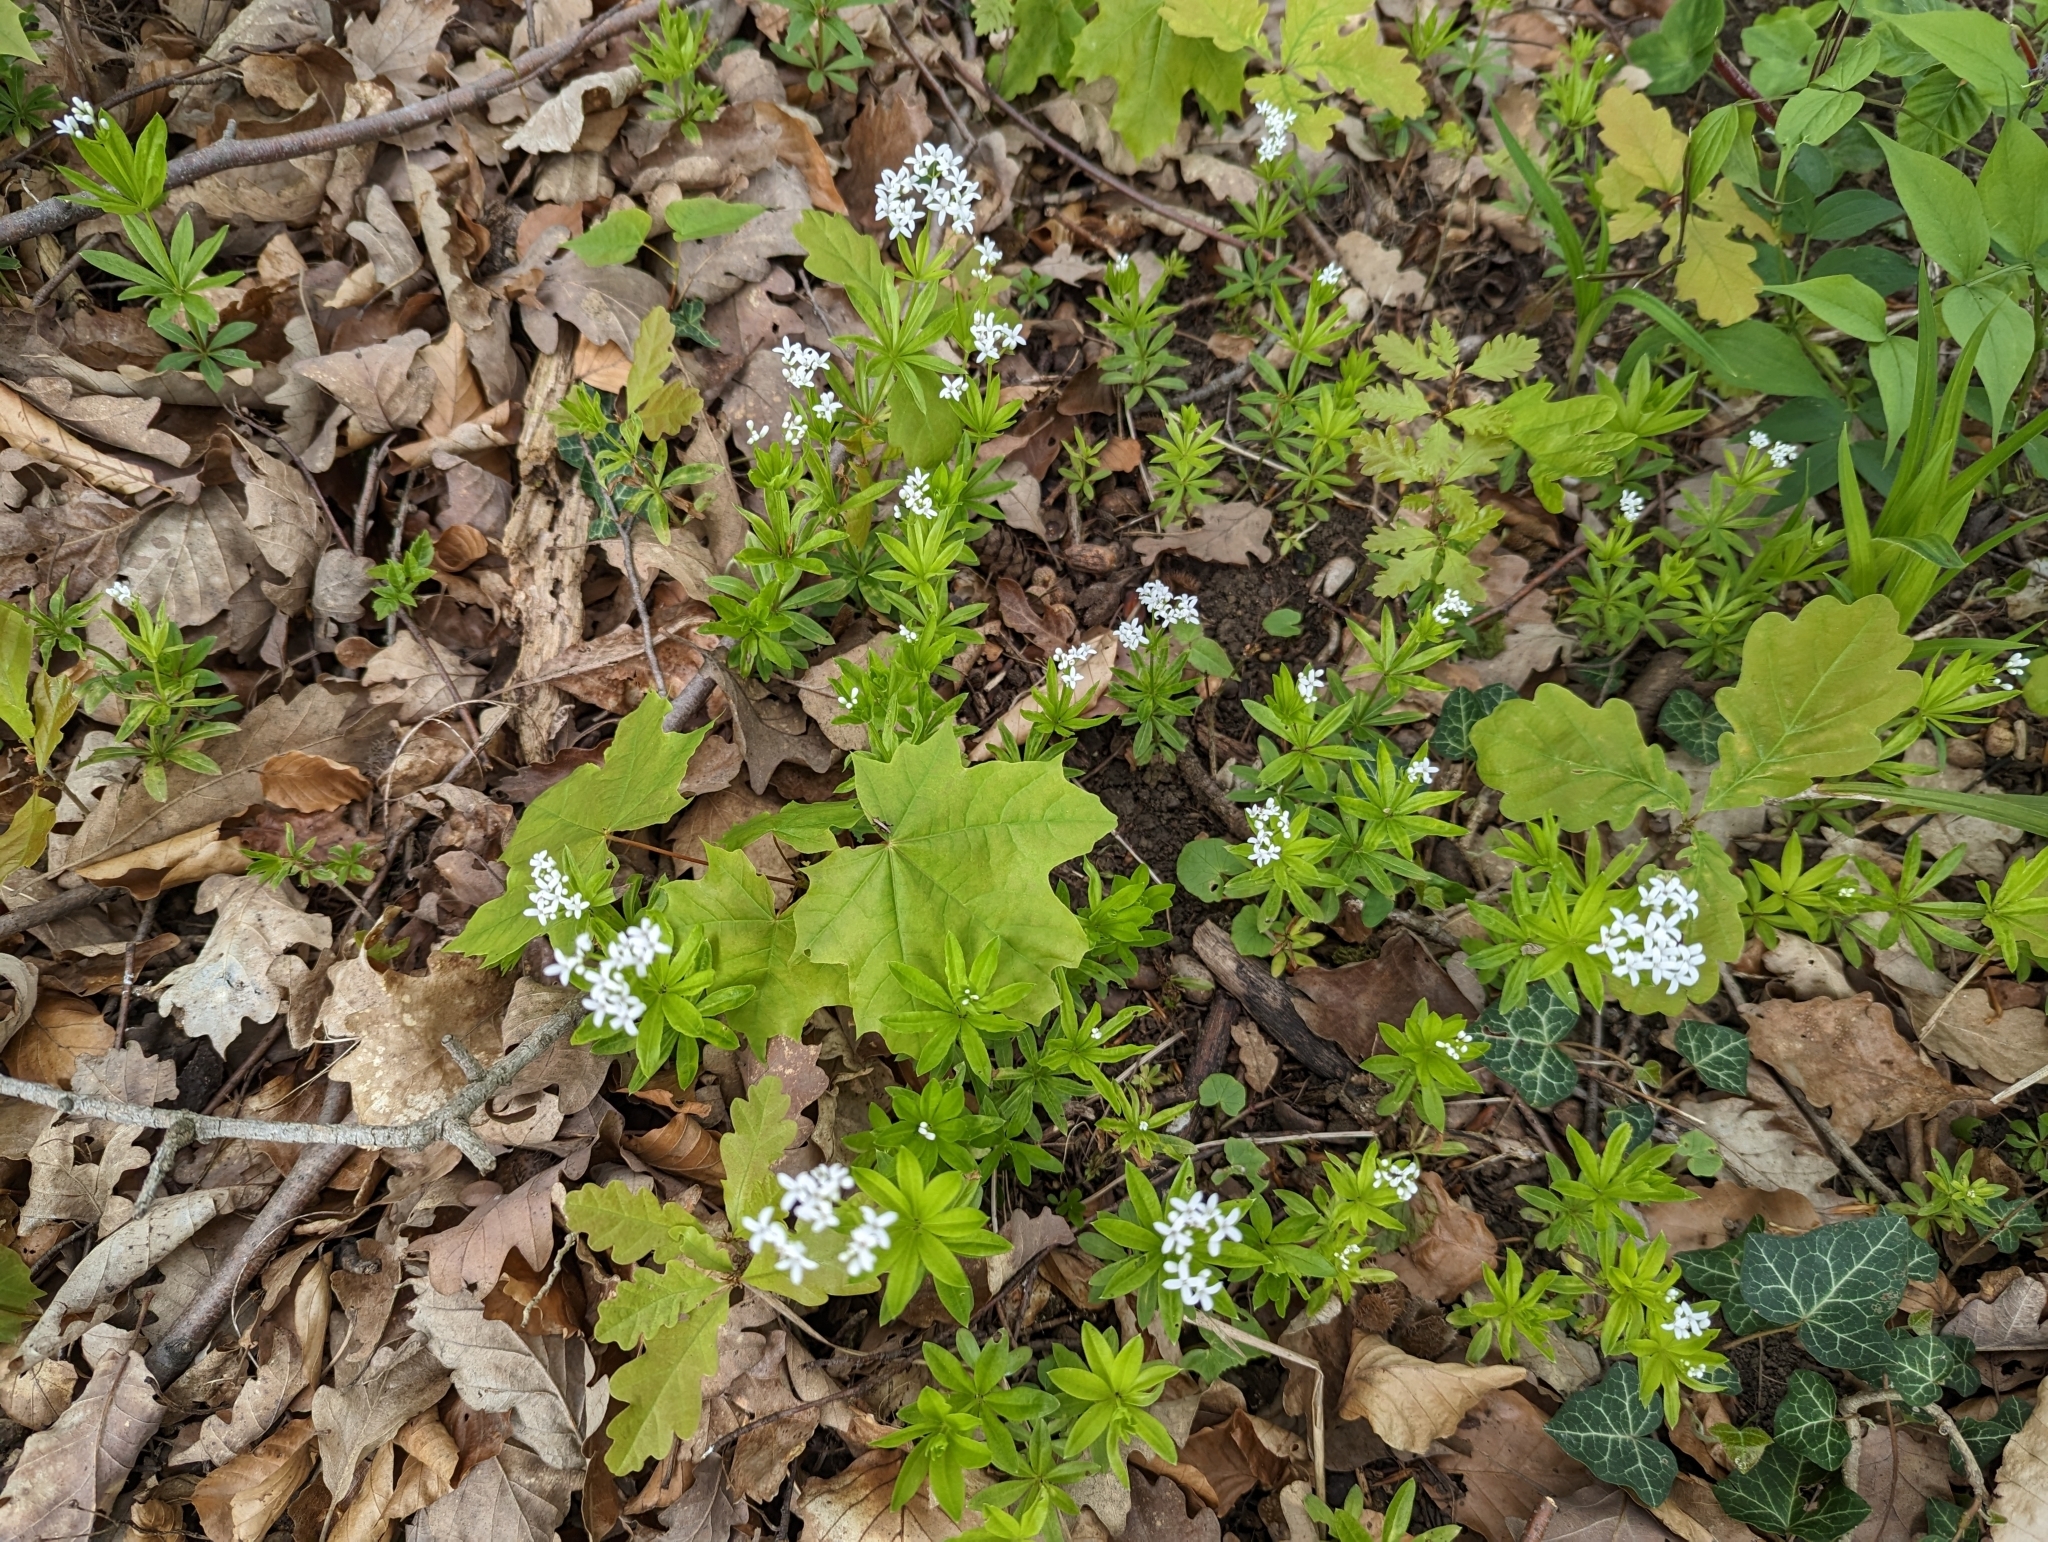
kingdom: Plantae
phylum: Tracheophyta
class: Magnoliopsida
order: Gentianales
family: Rubiaceae
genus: Galium
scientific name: Galium odoratum
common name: Sweet woodruff
